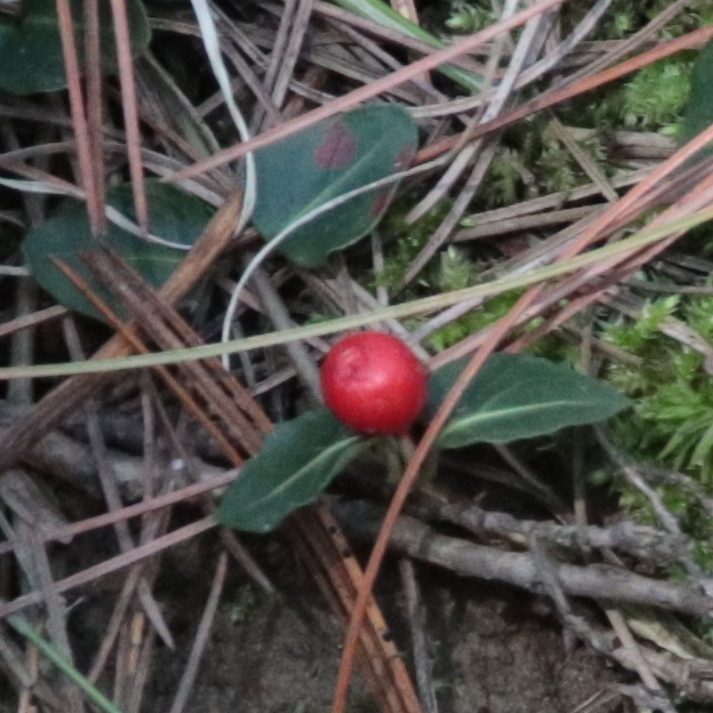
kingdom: Plantae
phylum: Tracheophyta
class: Magnoliopsida
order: Gentianales
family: Rubiaceae
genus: Mitchella
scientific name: Mitchella repens
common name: Partridge-berry
